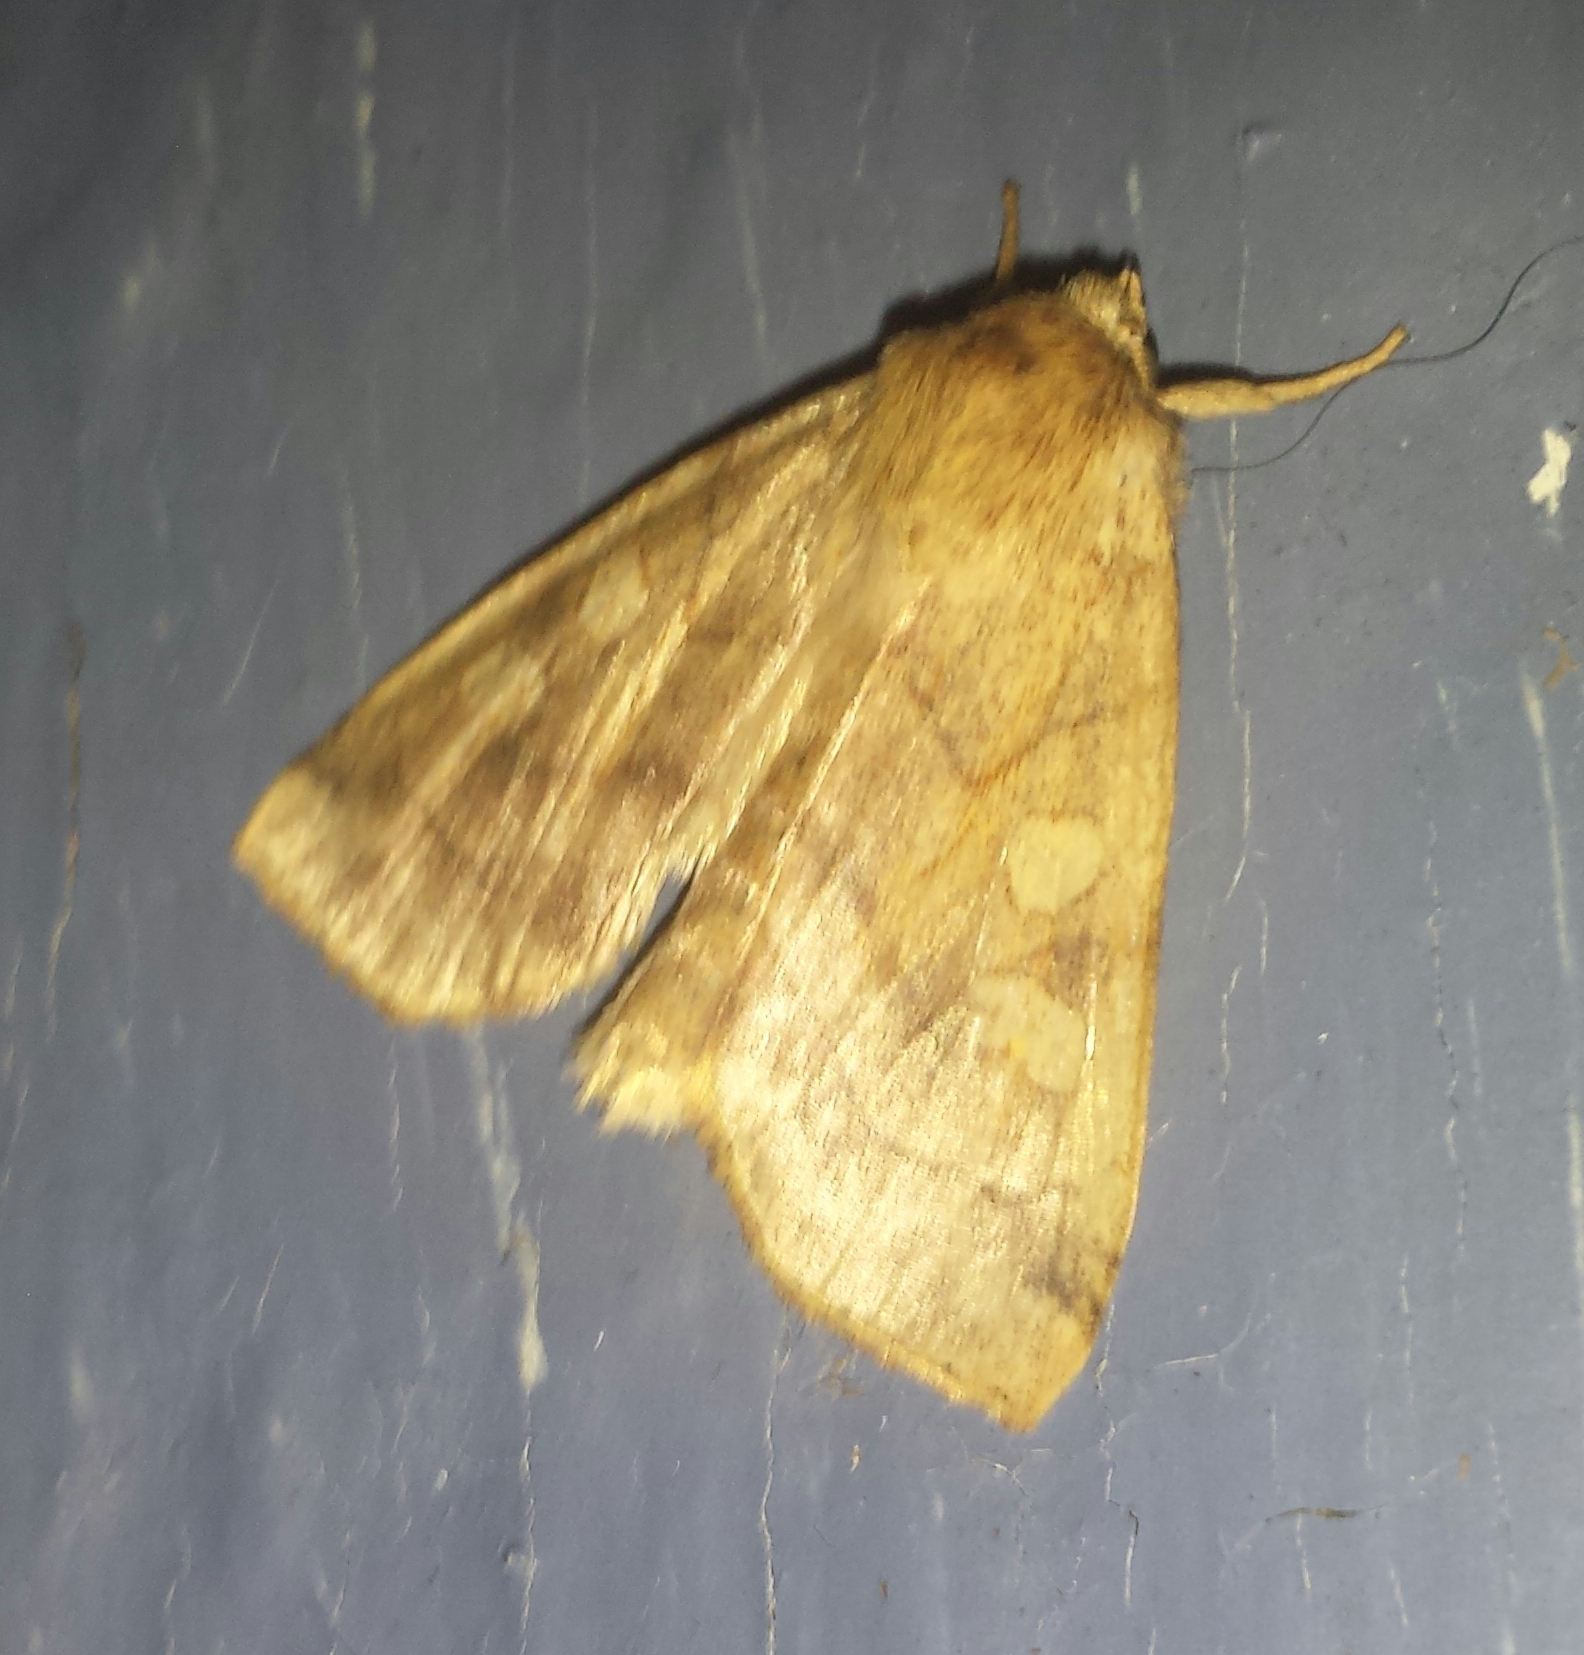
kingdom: Animalia
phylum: Arthropoda
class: Insecta
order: Lepidoptera
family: Noctuidae
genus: Enargia
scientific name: Enargia decolor
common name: Aspen twoleaf tier moth
